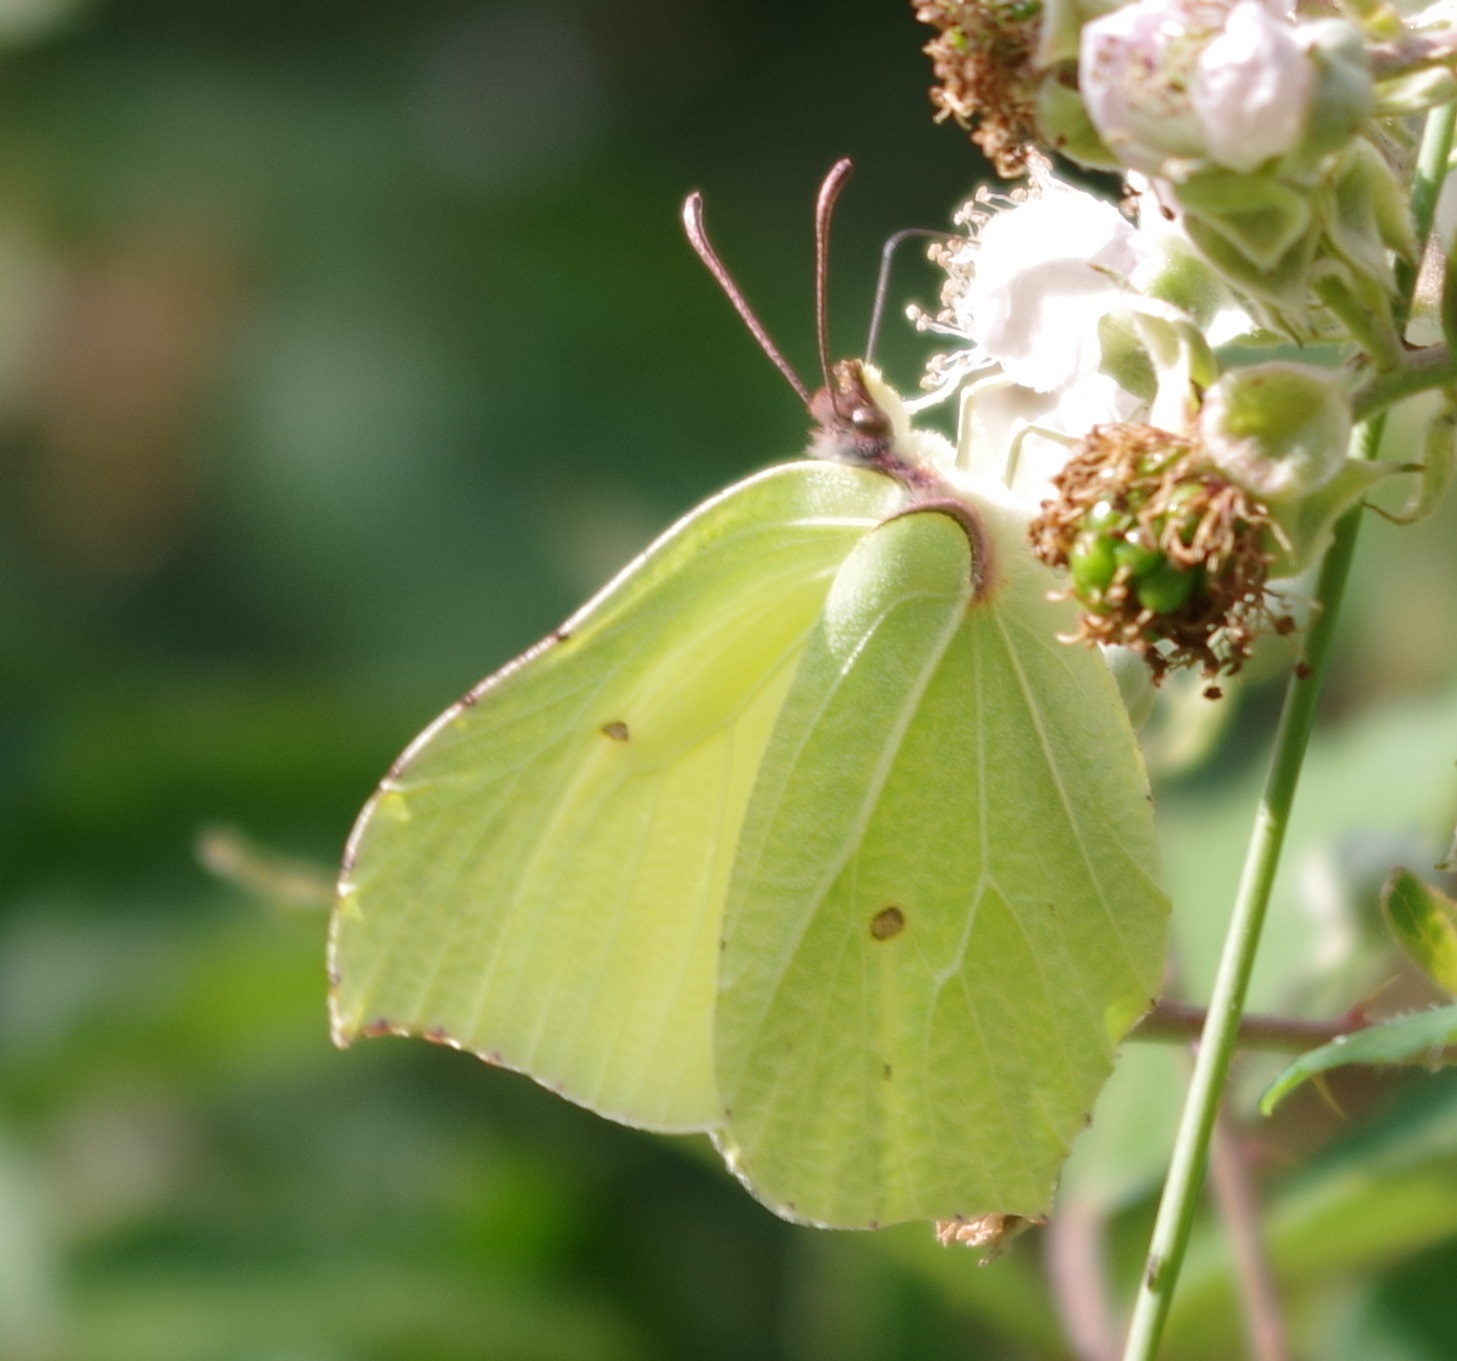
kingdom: Animalia
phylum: Arthropoda
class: Insecta
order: Lepidoptera
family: Pieridae
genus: Gonepteryx
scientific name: Gonepteryx rhamni
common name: Brimstone
